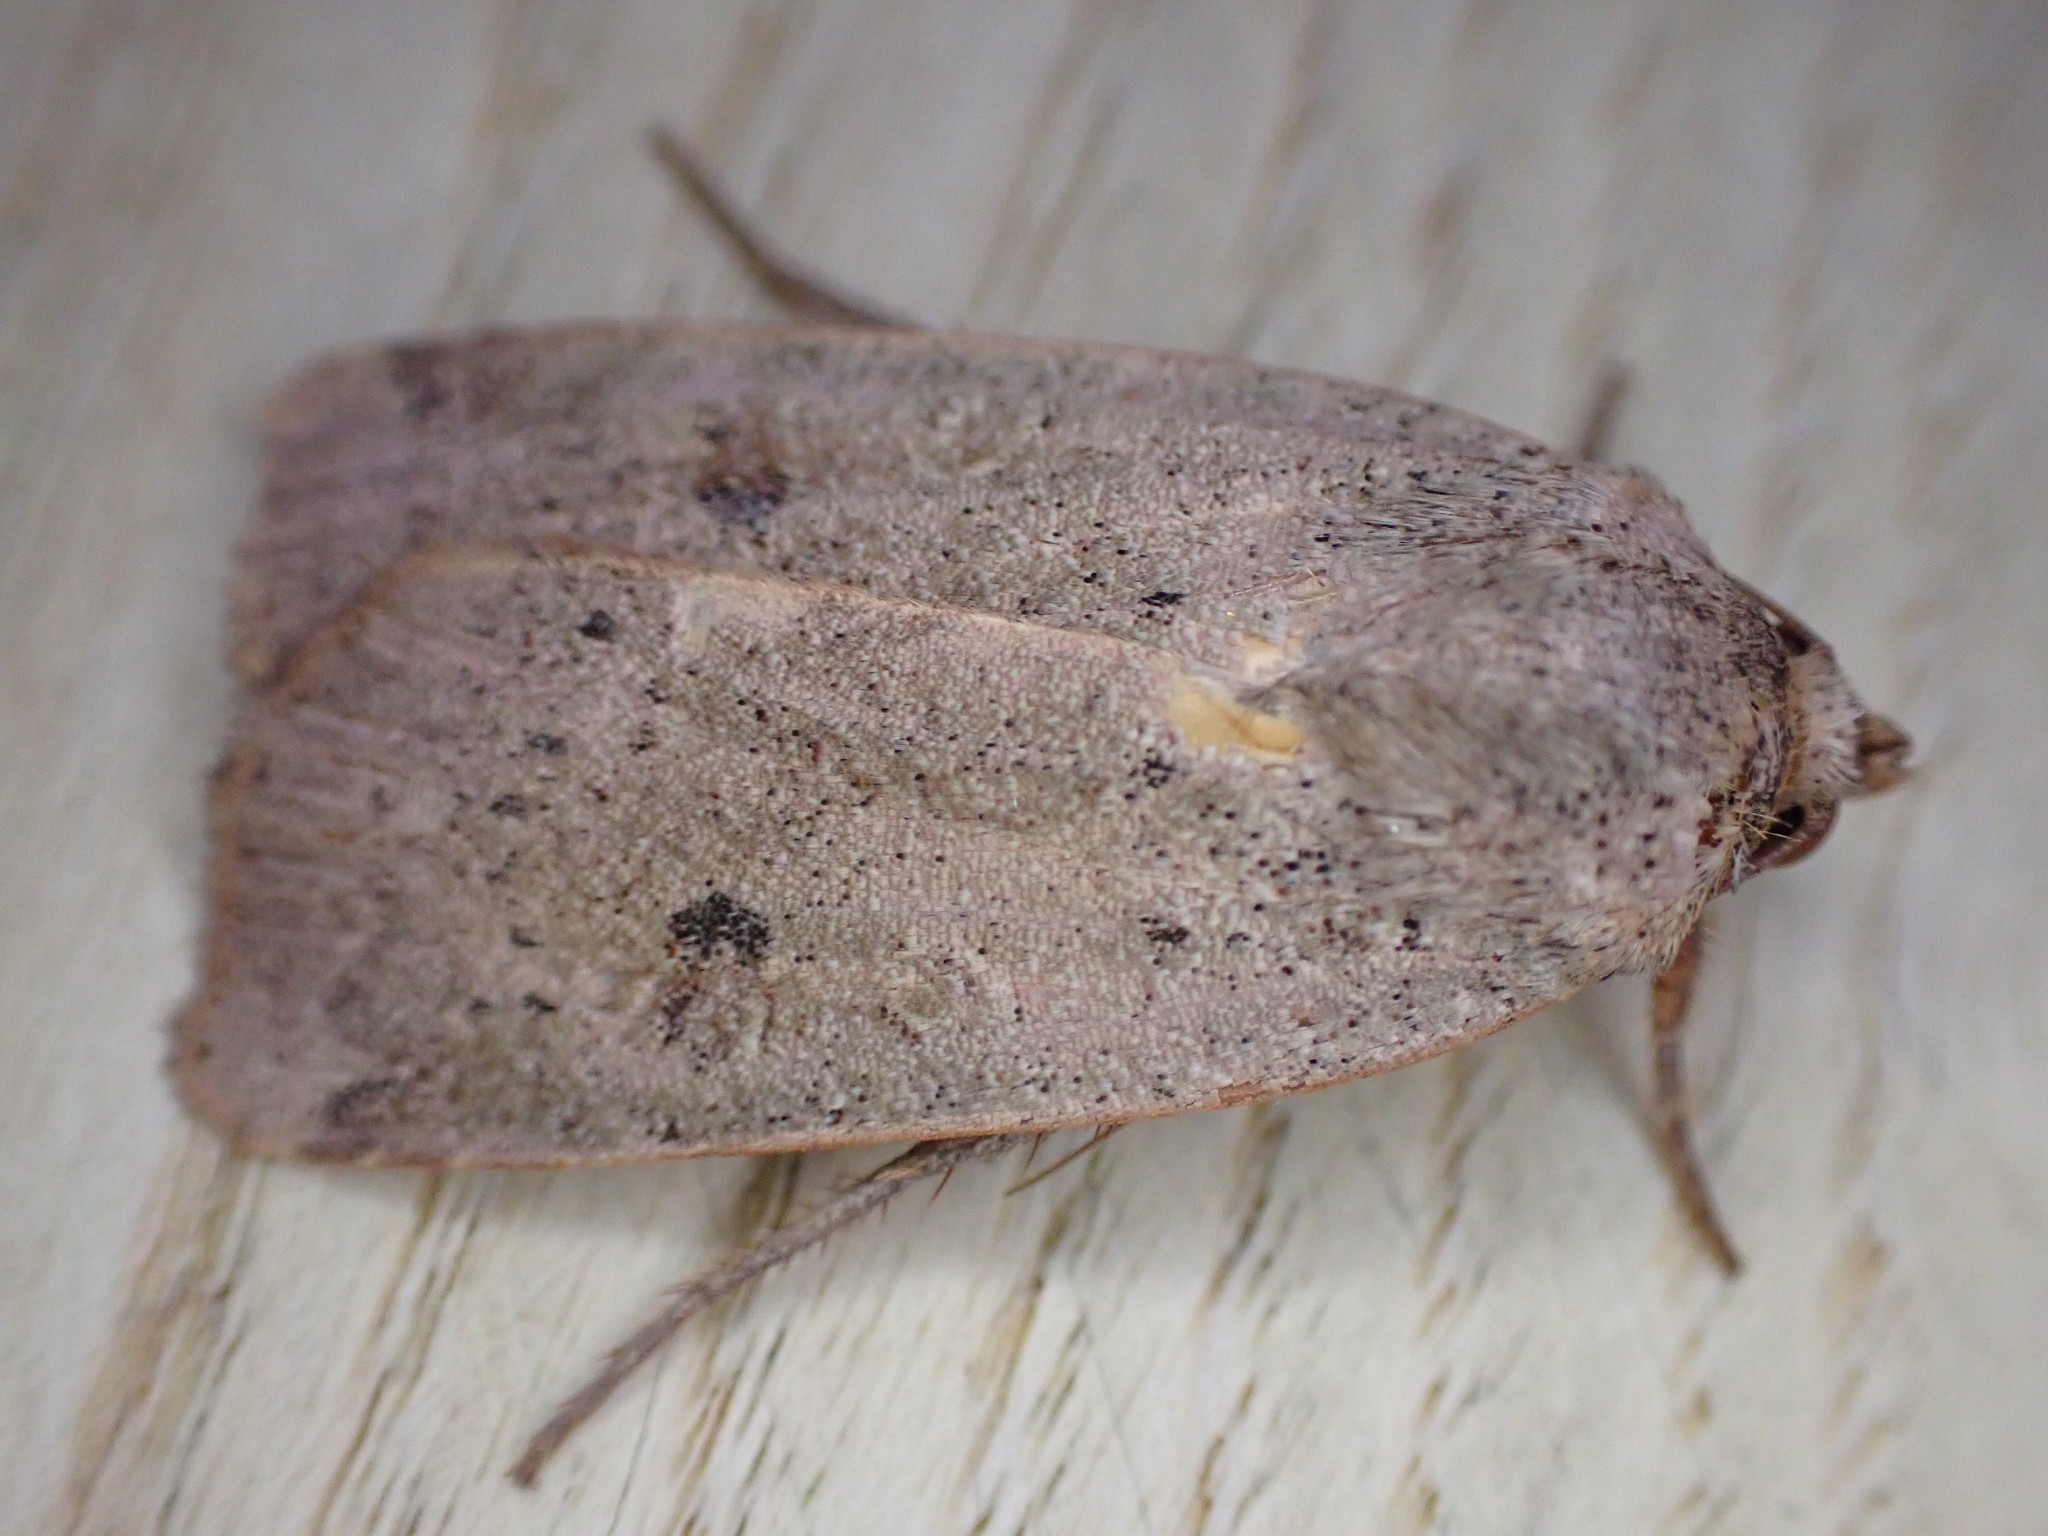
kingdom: Animalia
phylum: Arthropoda
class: Insecta
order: Lepidoptera
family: Noctuidae
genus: Noctua
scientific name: Noctua comes
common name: Lesser yellow underwing
